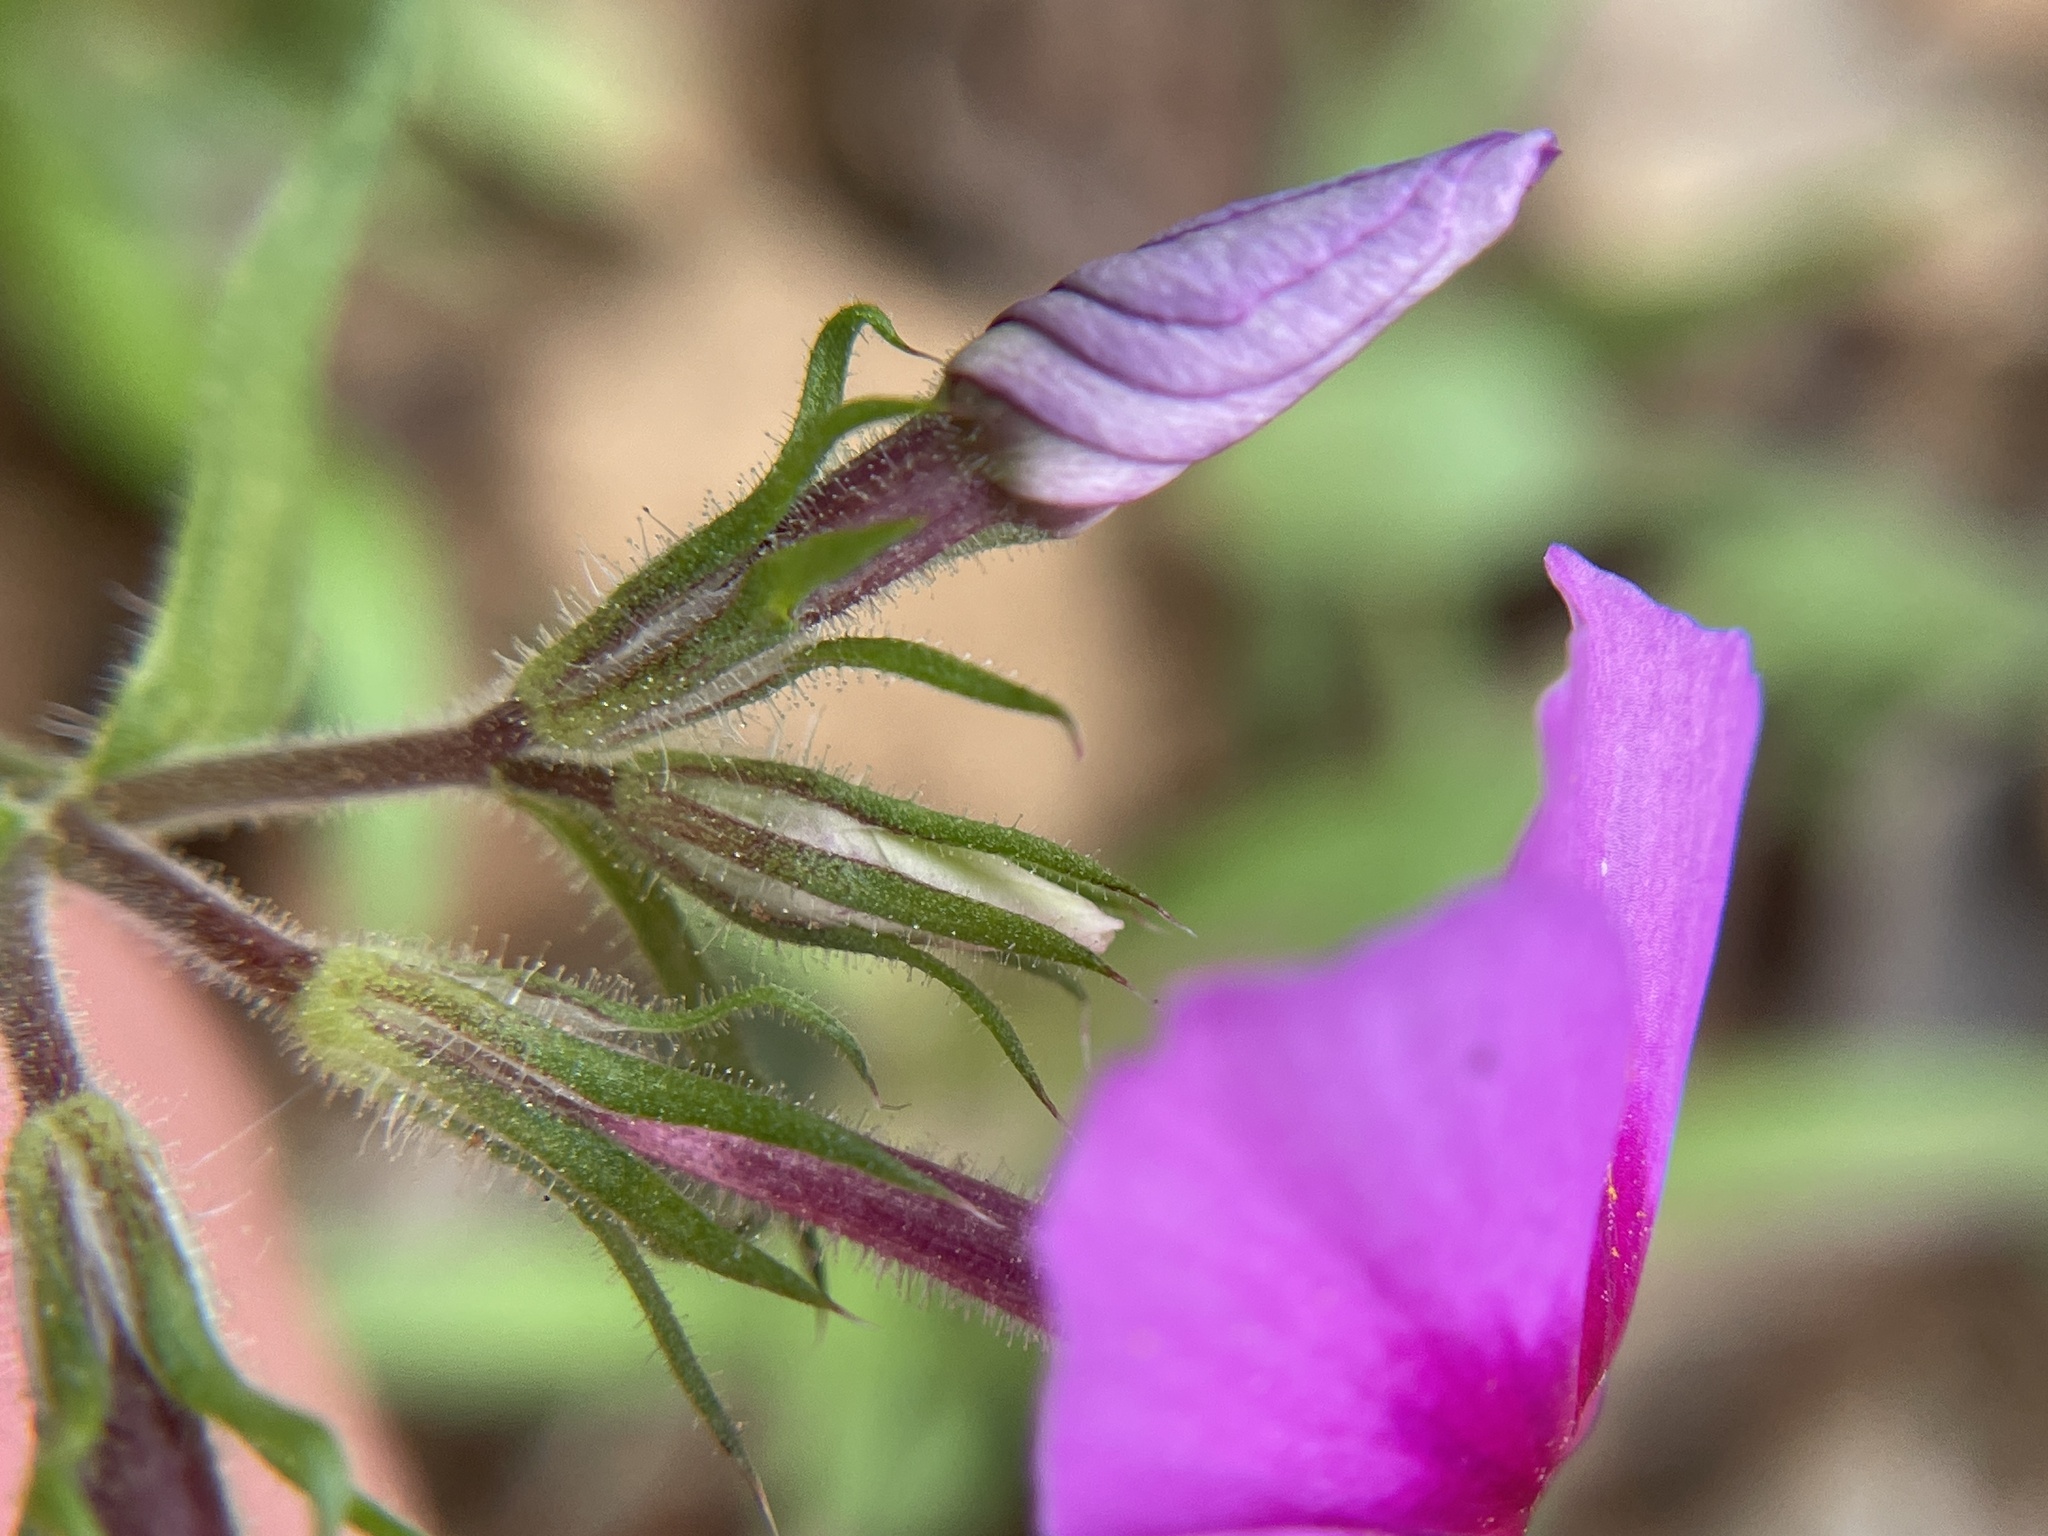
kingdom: Plantae
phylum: Tracheophyta
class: Magnoliopsida
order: Ericales
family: Polemoniaceae
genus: Phlox
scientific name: Phlox drummondii
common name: Drummond's phlox
